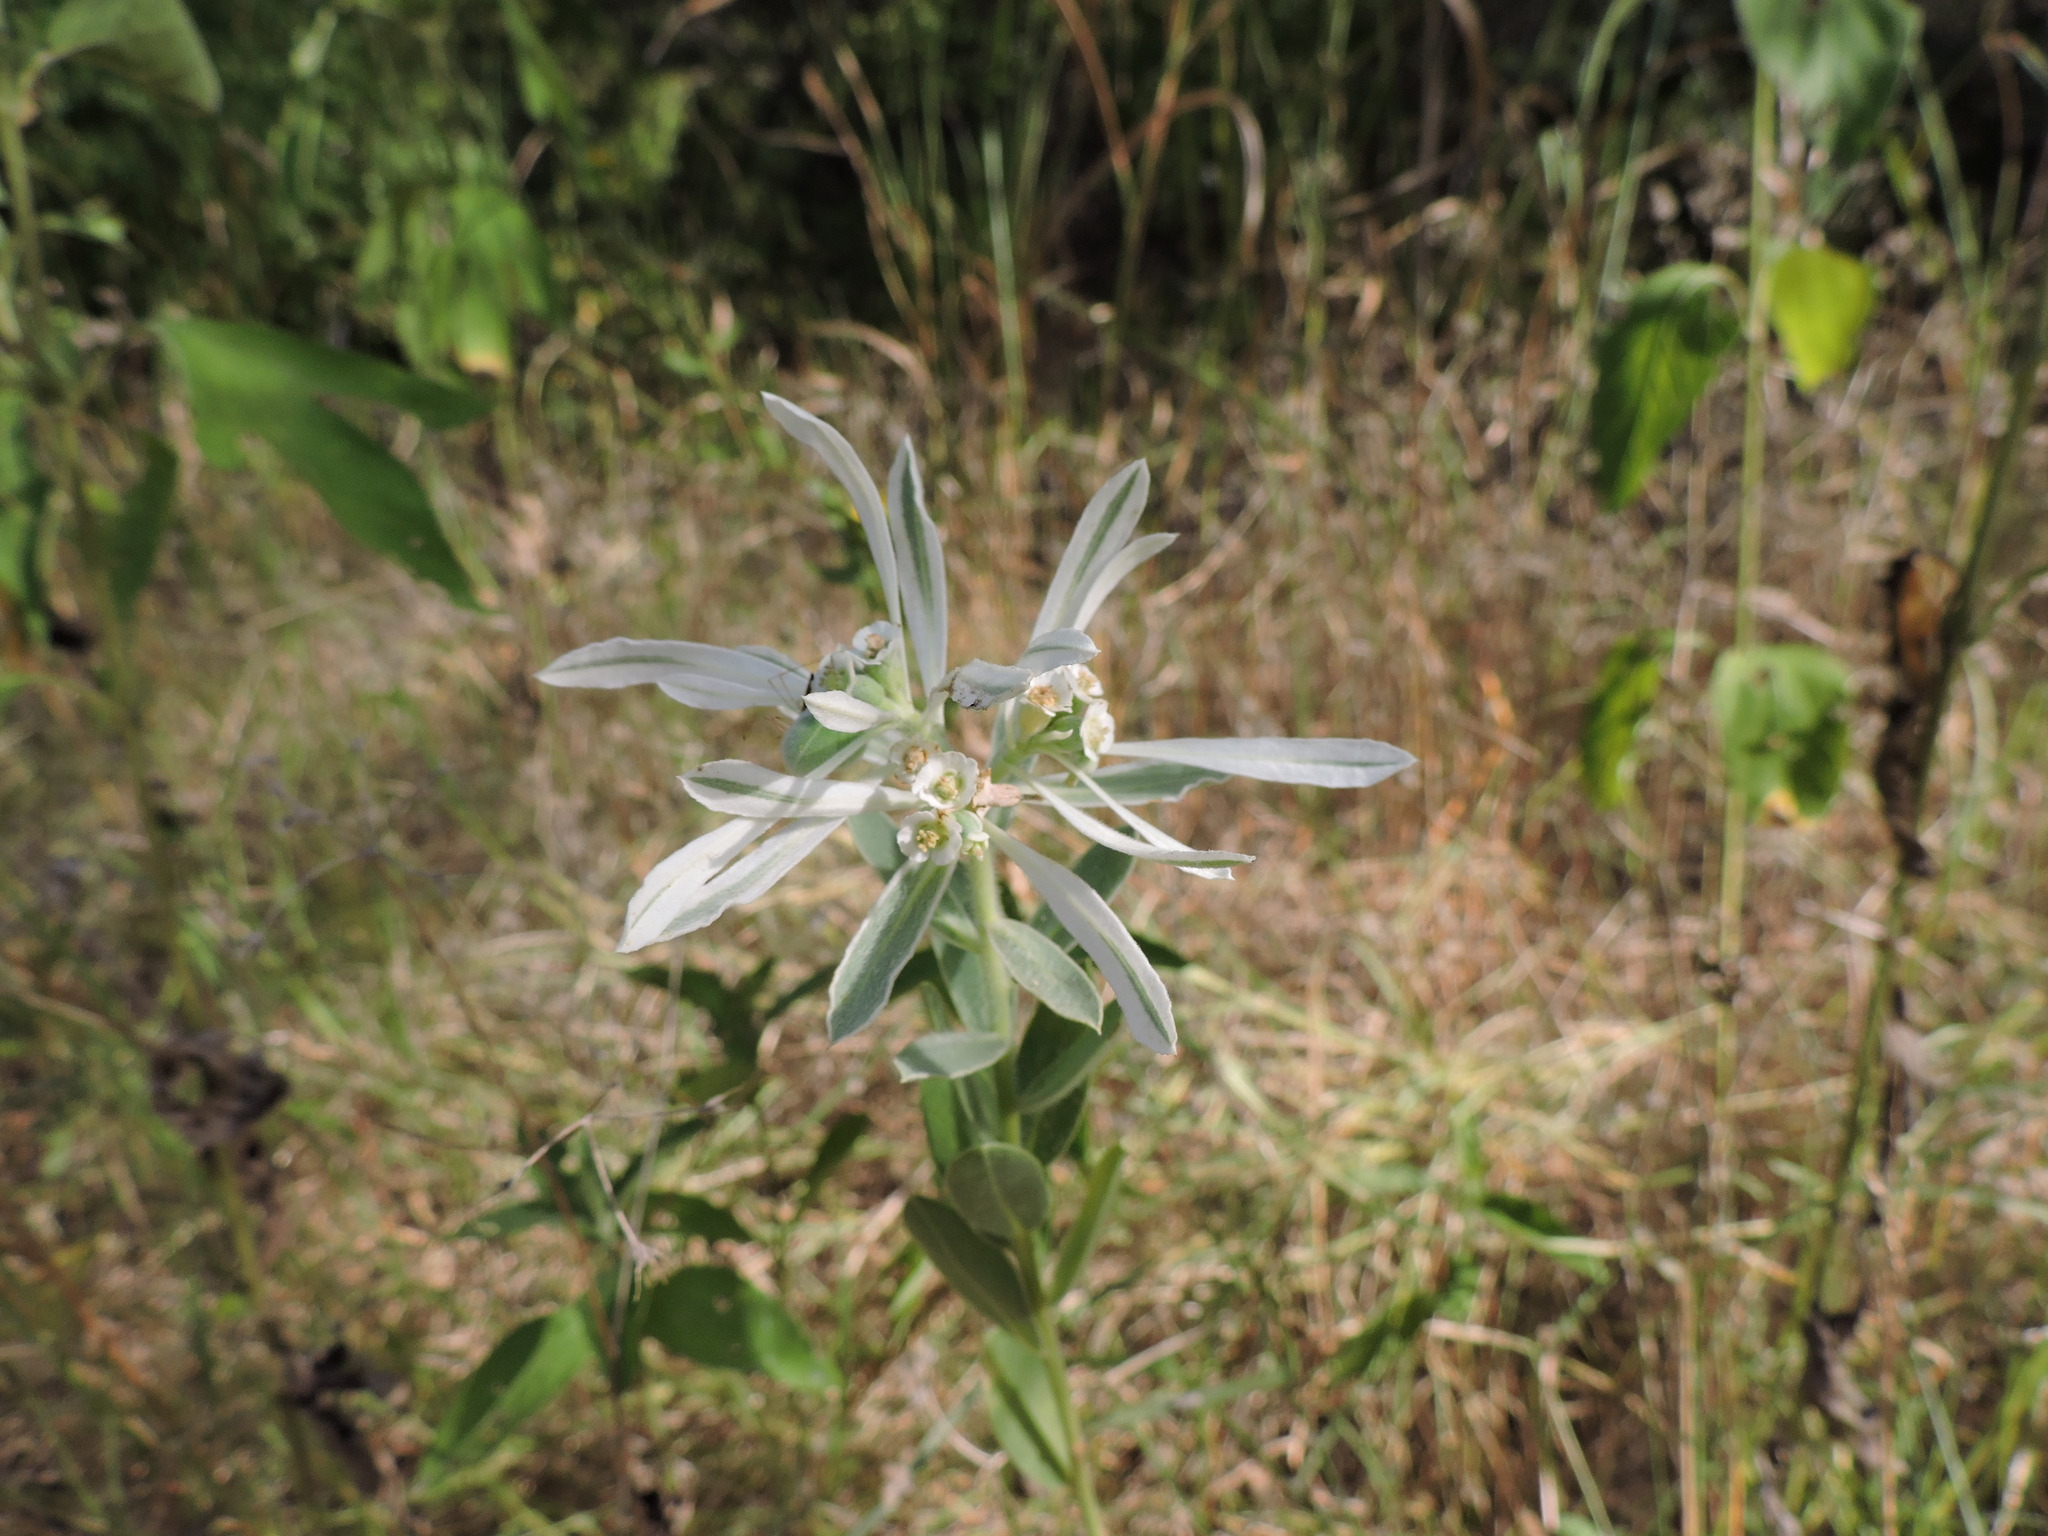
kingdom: Plantae
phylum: Tracheophyta
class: Magnoliopsida
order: Malpighiales
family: Euphorbiaceae
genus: Euphorbia
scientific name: Euphorbia bicolor
